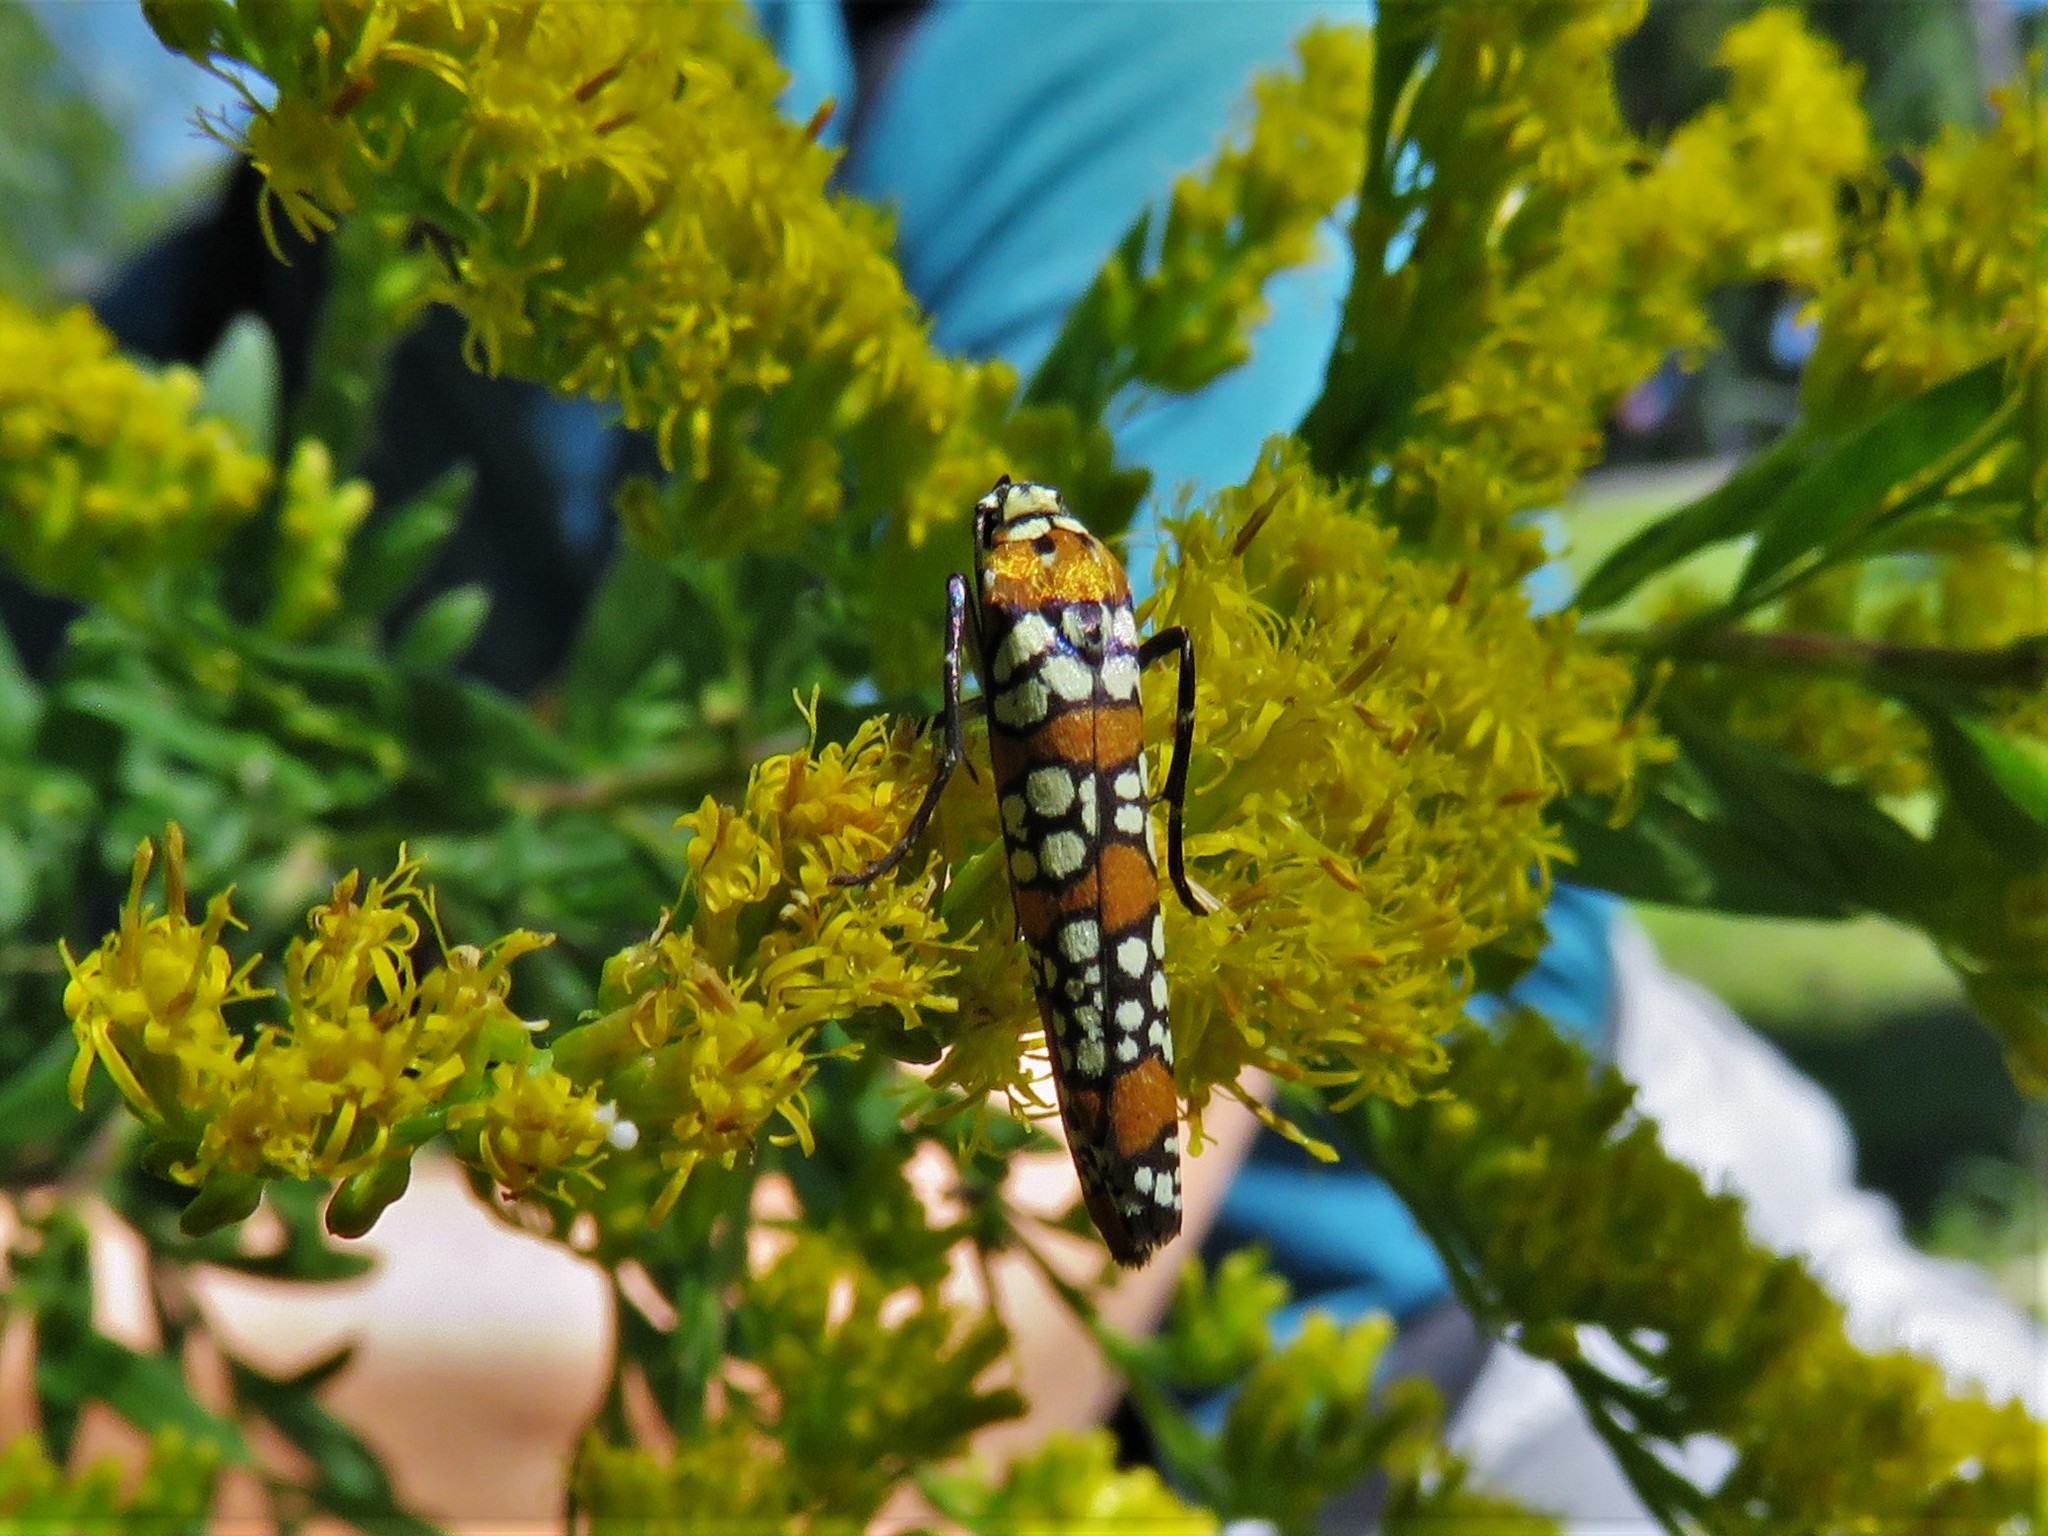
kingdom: Animalia
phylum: Arthropoda
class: Insecta
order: Lepidoptera
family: Attevidae
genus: Atteva
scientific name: Atteva punctella
